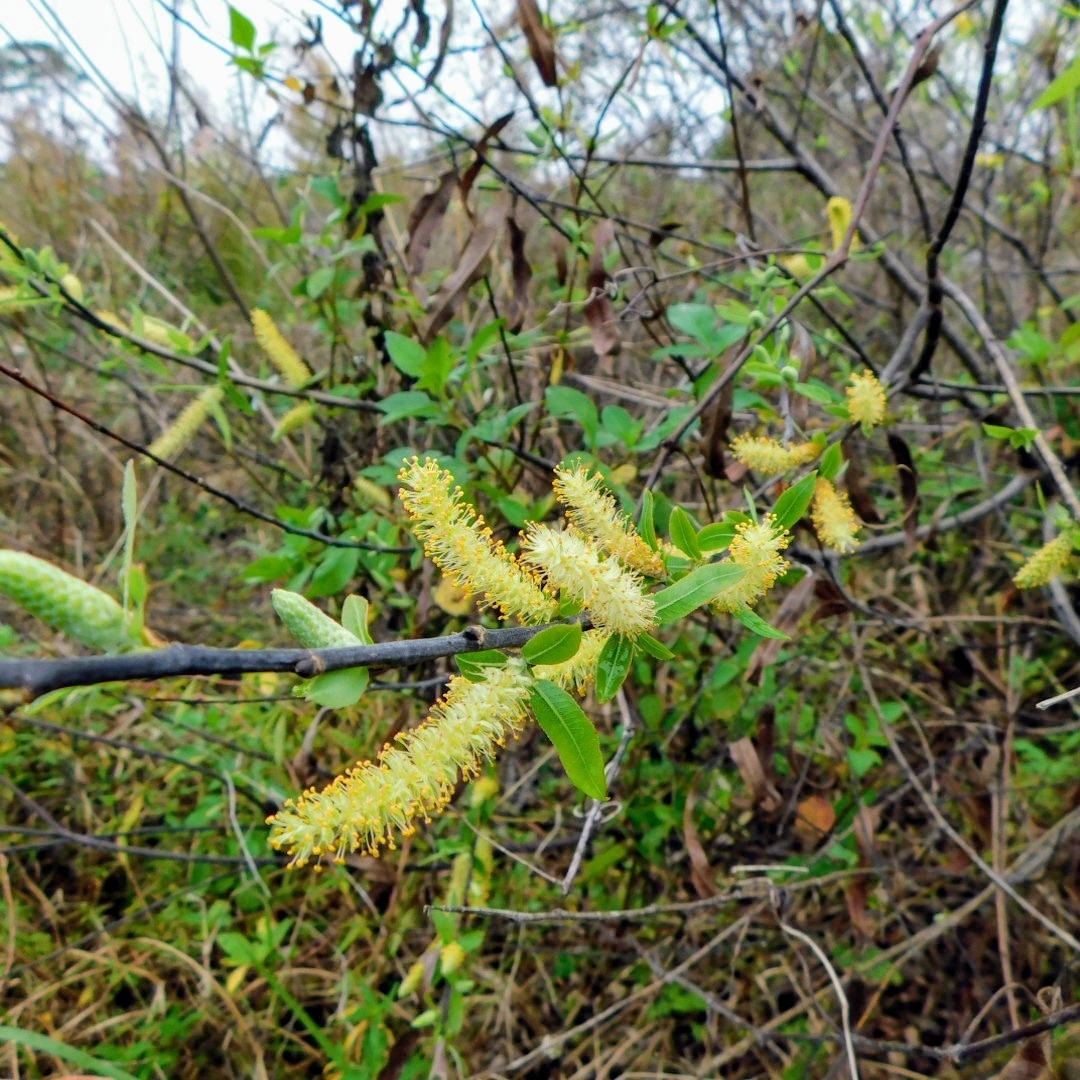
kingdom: Plantae
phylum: Tracheophyta
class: Magnoliopsida
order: Malpighiales
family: Salicaceae
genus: Salix
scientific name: Salix caroliniana
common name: Carolina willow
